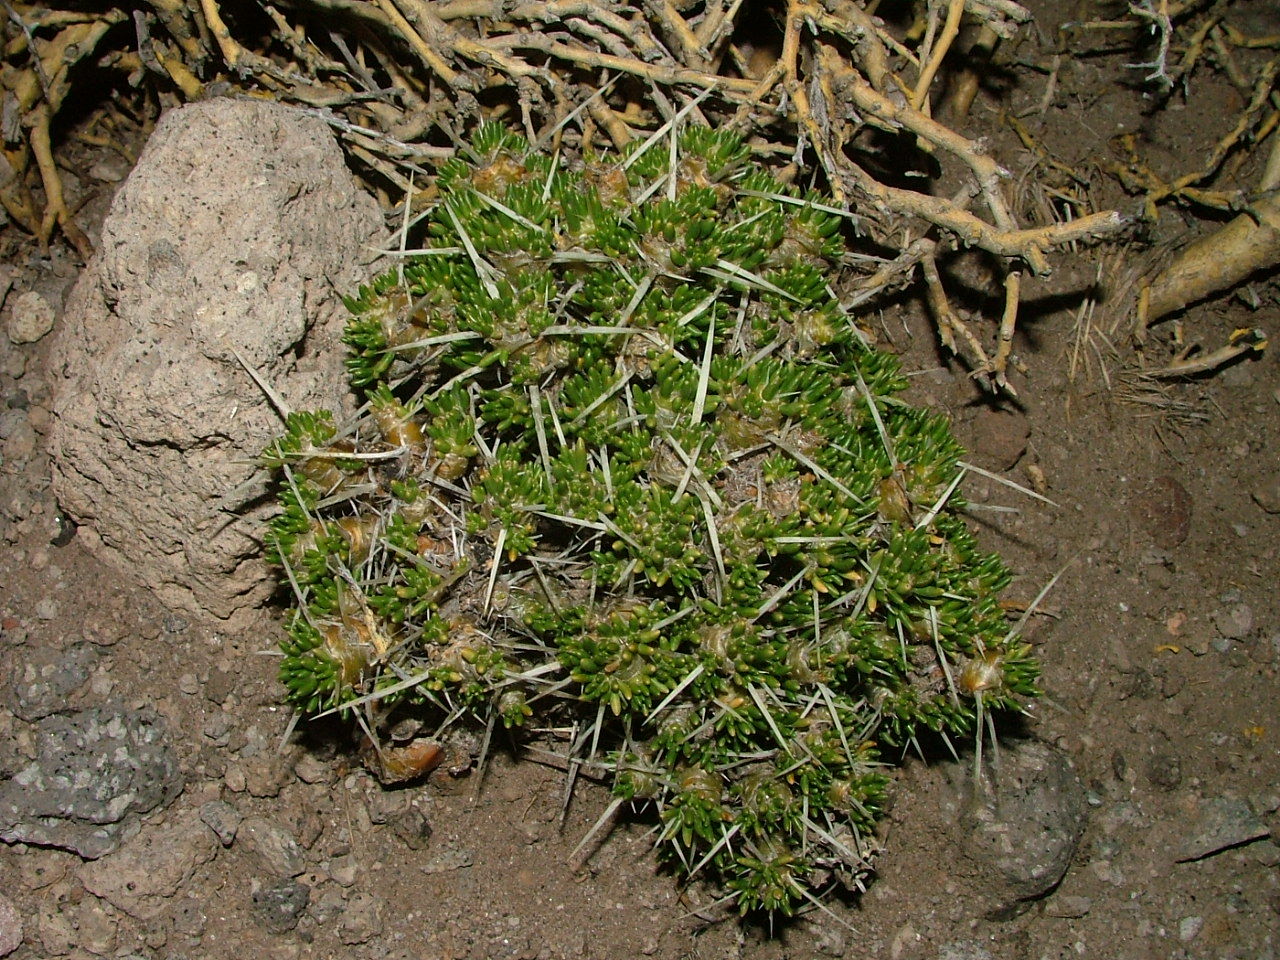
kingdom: Plantae
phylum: Tracheophyta
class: Magnoliopsida
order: Caryophyllales
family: Cactaceae
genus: Maihuenia
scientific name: Maihuenia patagonica
